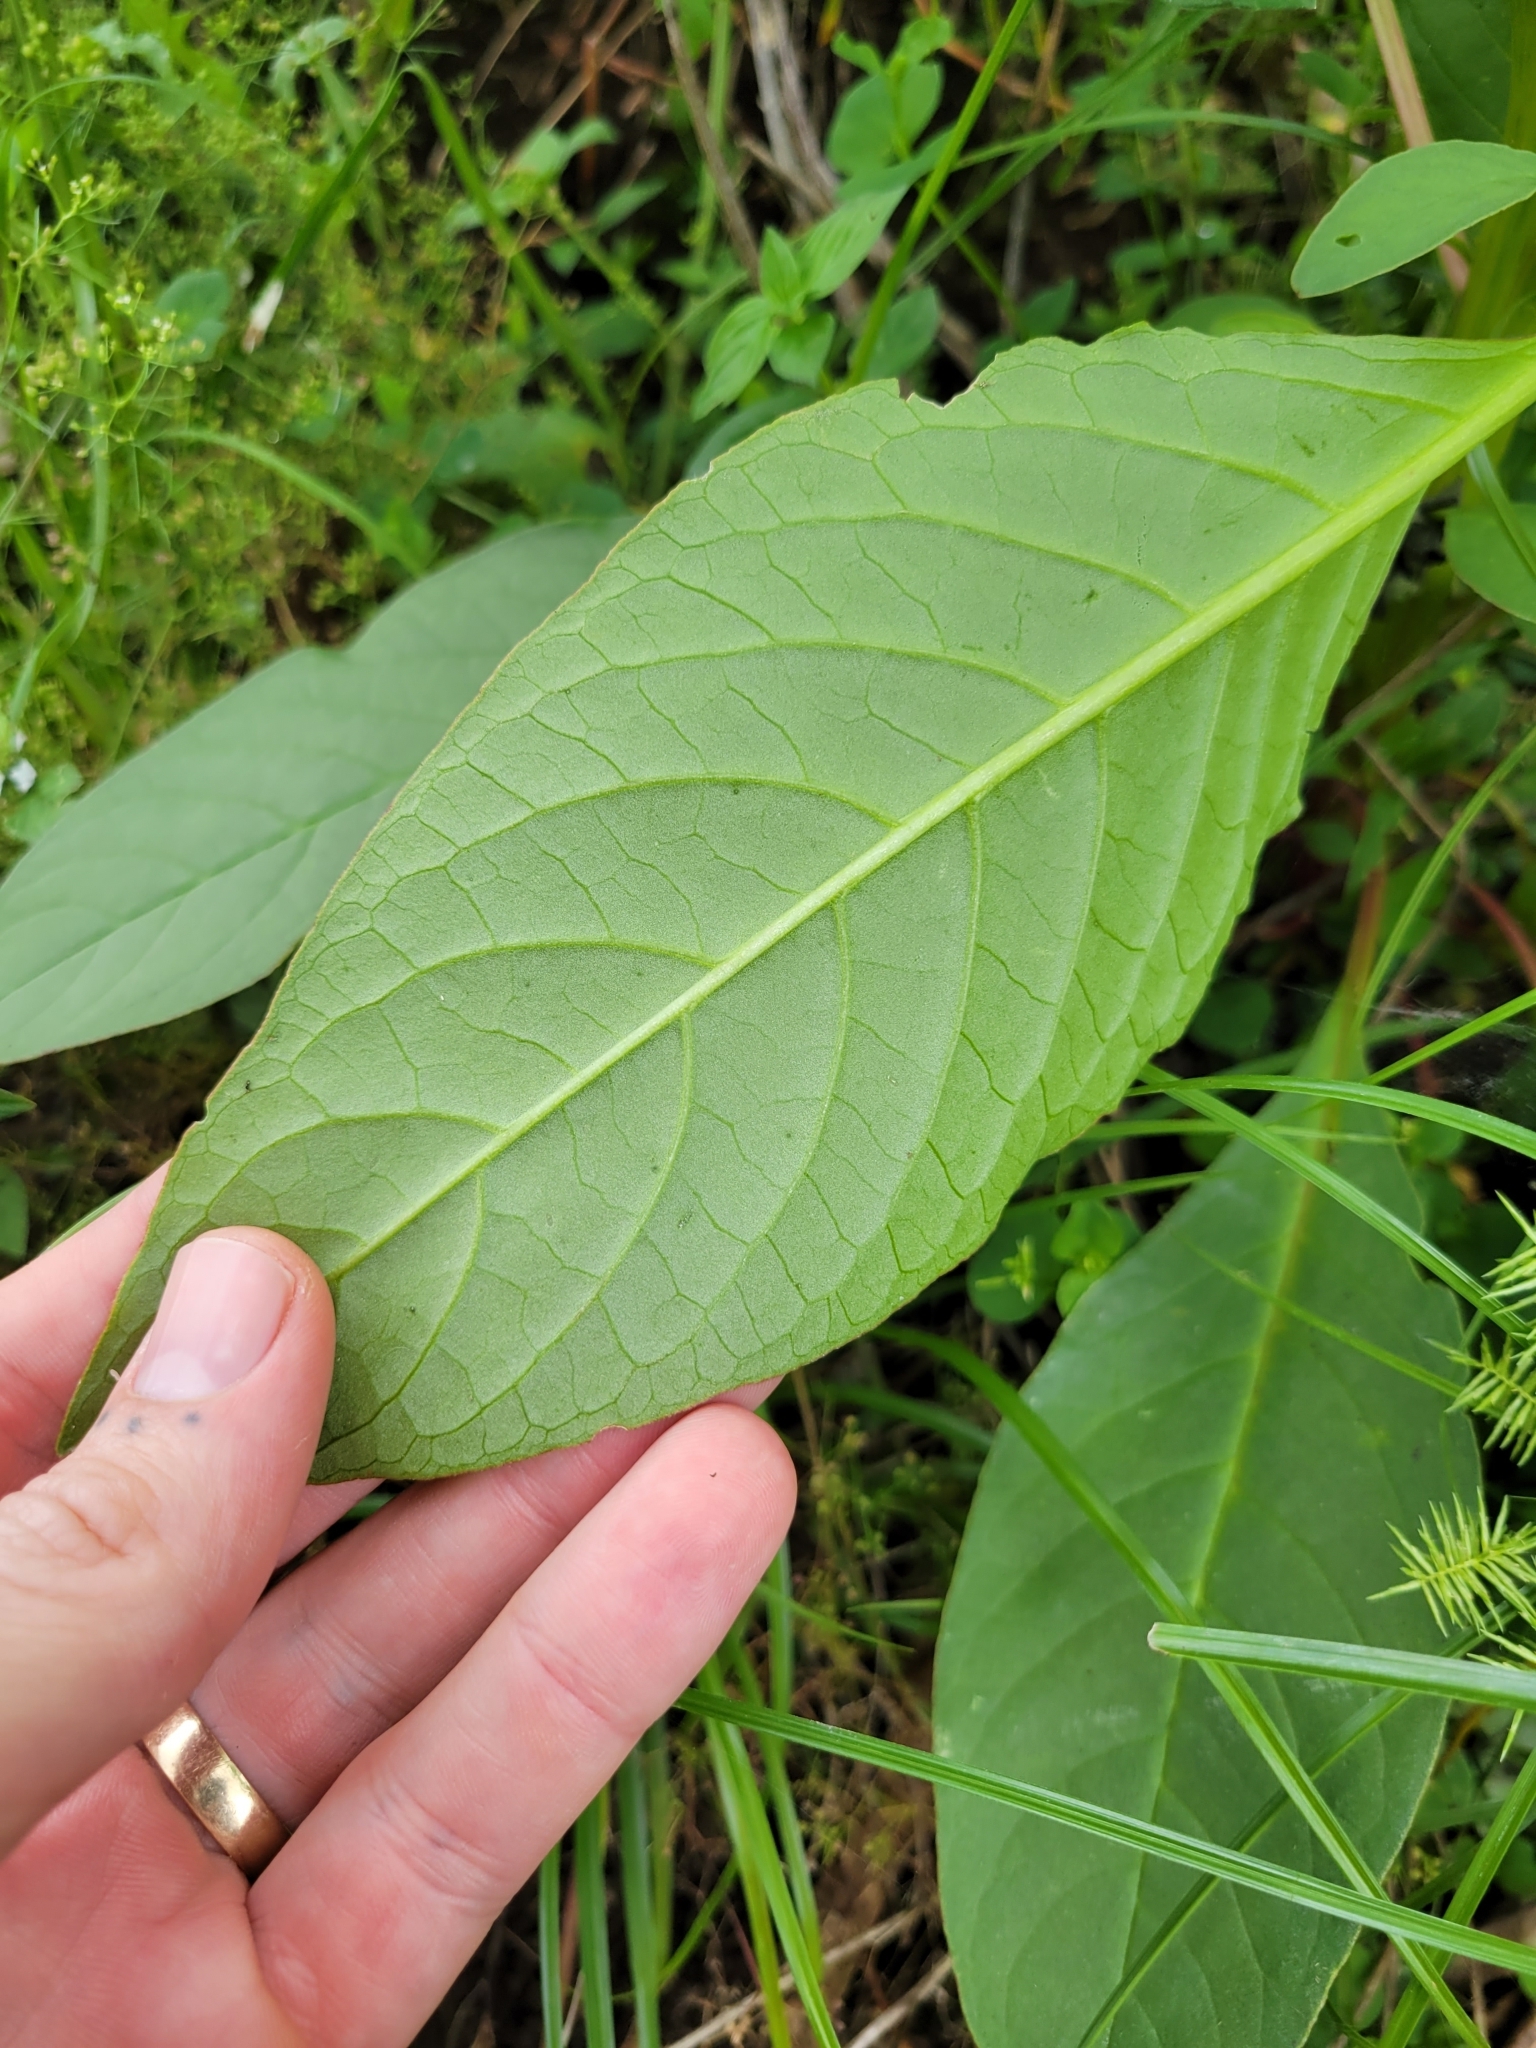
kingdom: Plantae
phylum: Tracheophyta
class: Magnoliopsida
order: Caryophyllales
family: Phytolaccaceae
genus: Phytolacca
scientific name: Phytolacca icosandra
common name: Button pokeweed
